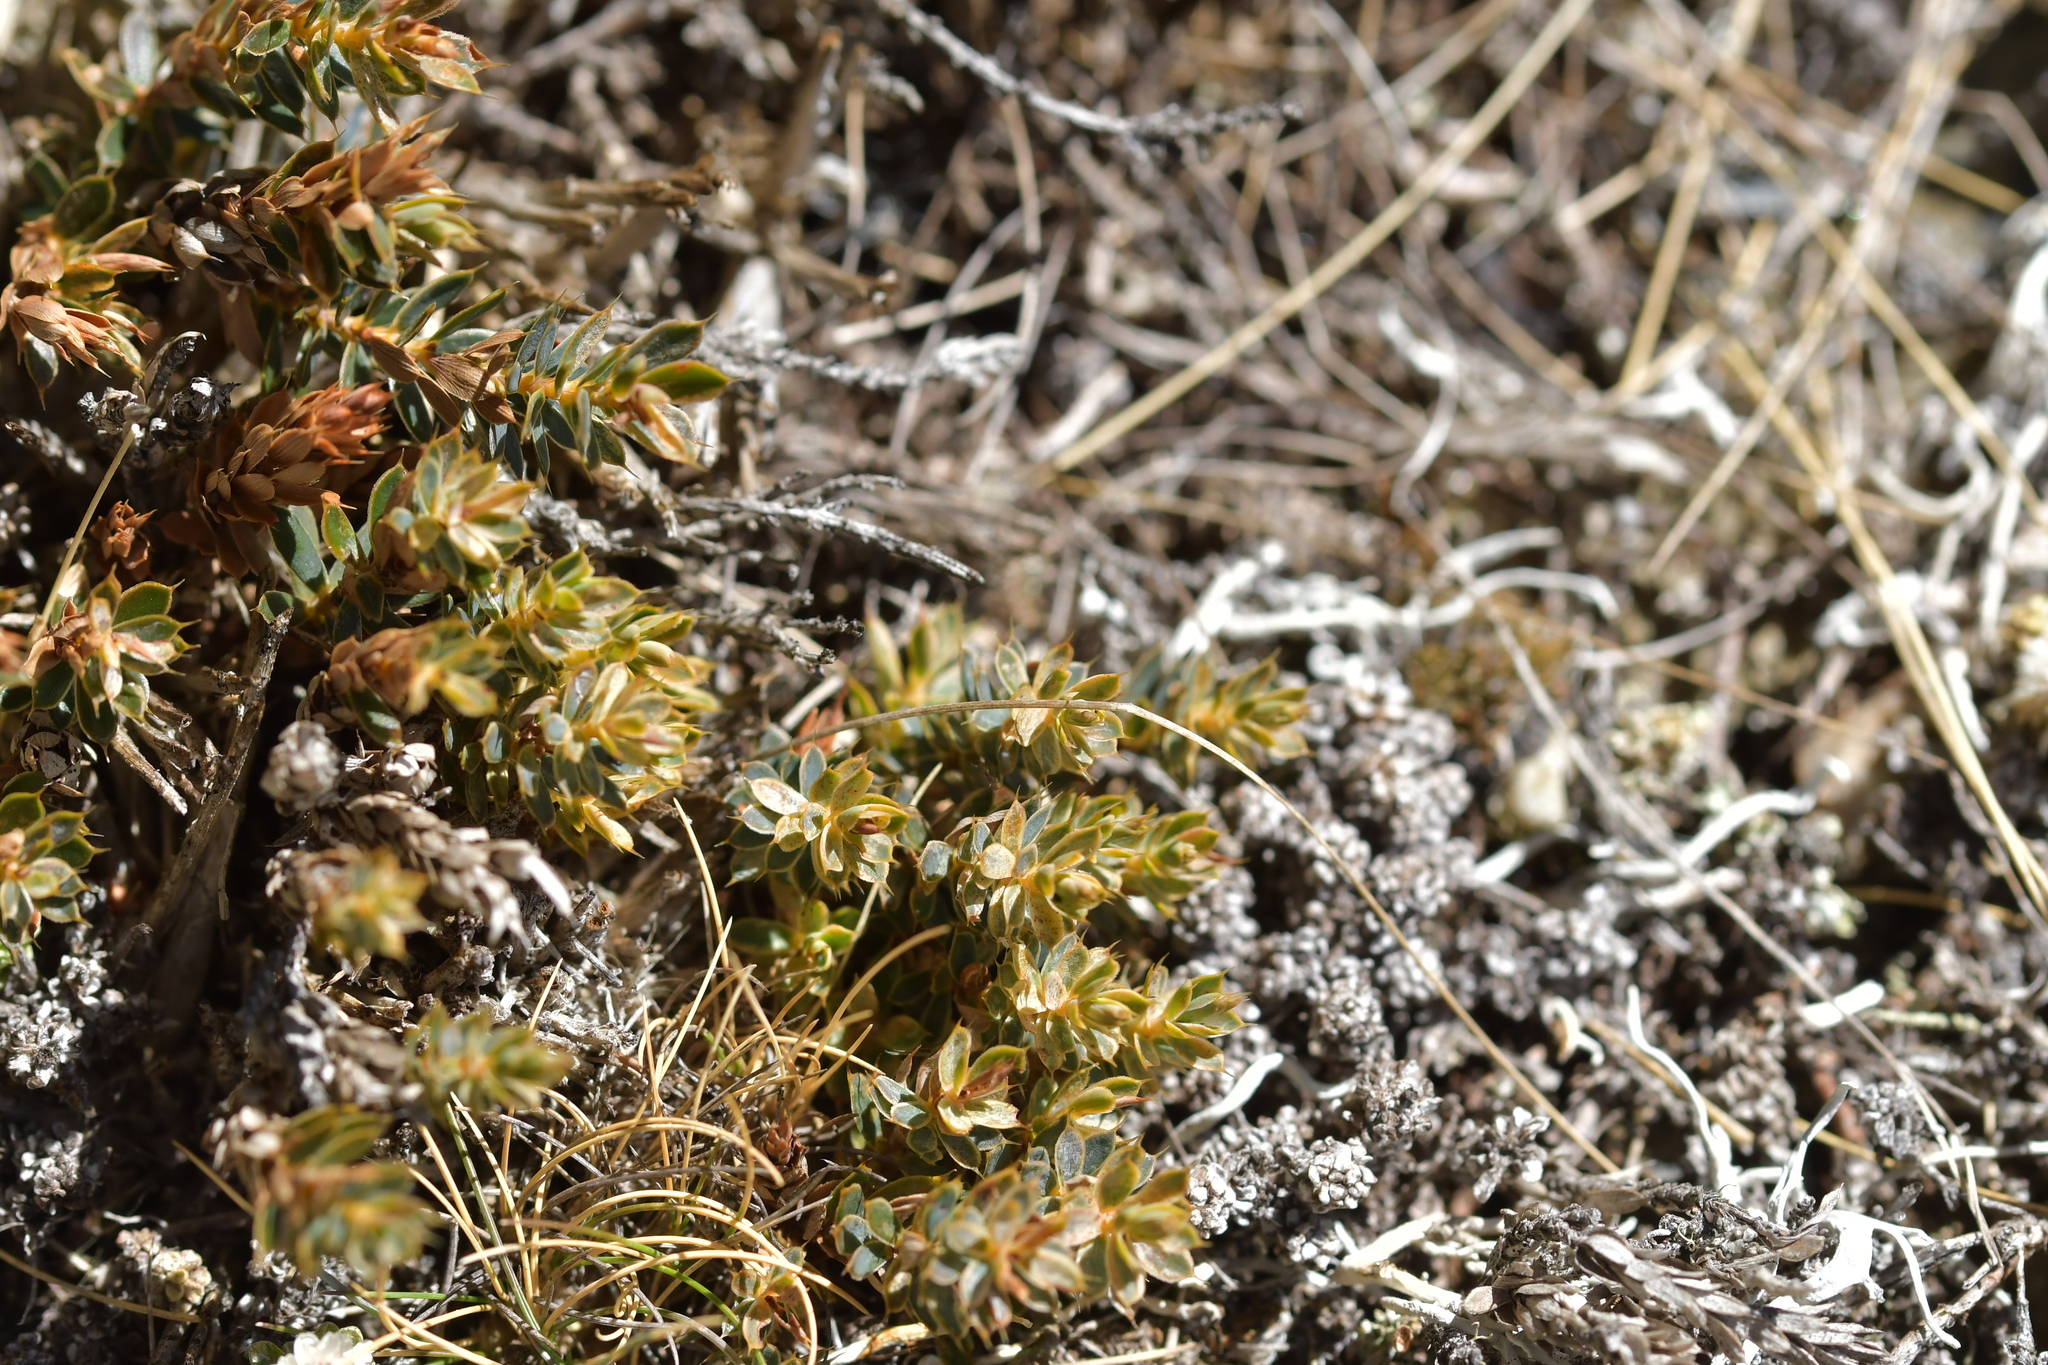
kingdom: Plantae
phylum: Tracheophyta
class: Magnoliopsida
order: Ericales
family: Ericaceae
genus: Styphelia
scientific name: Styphelia nesophila
